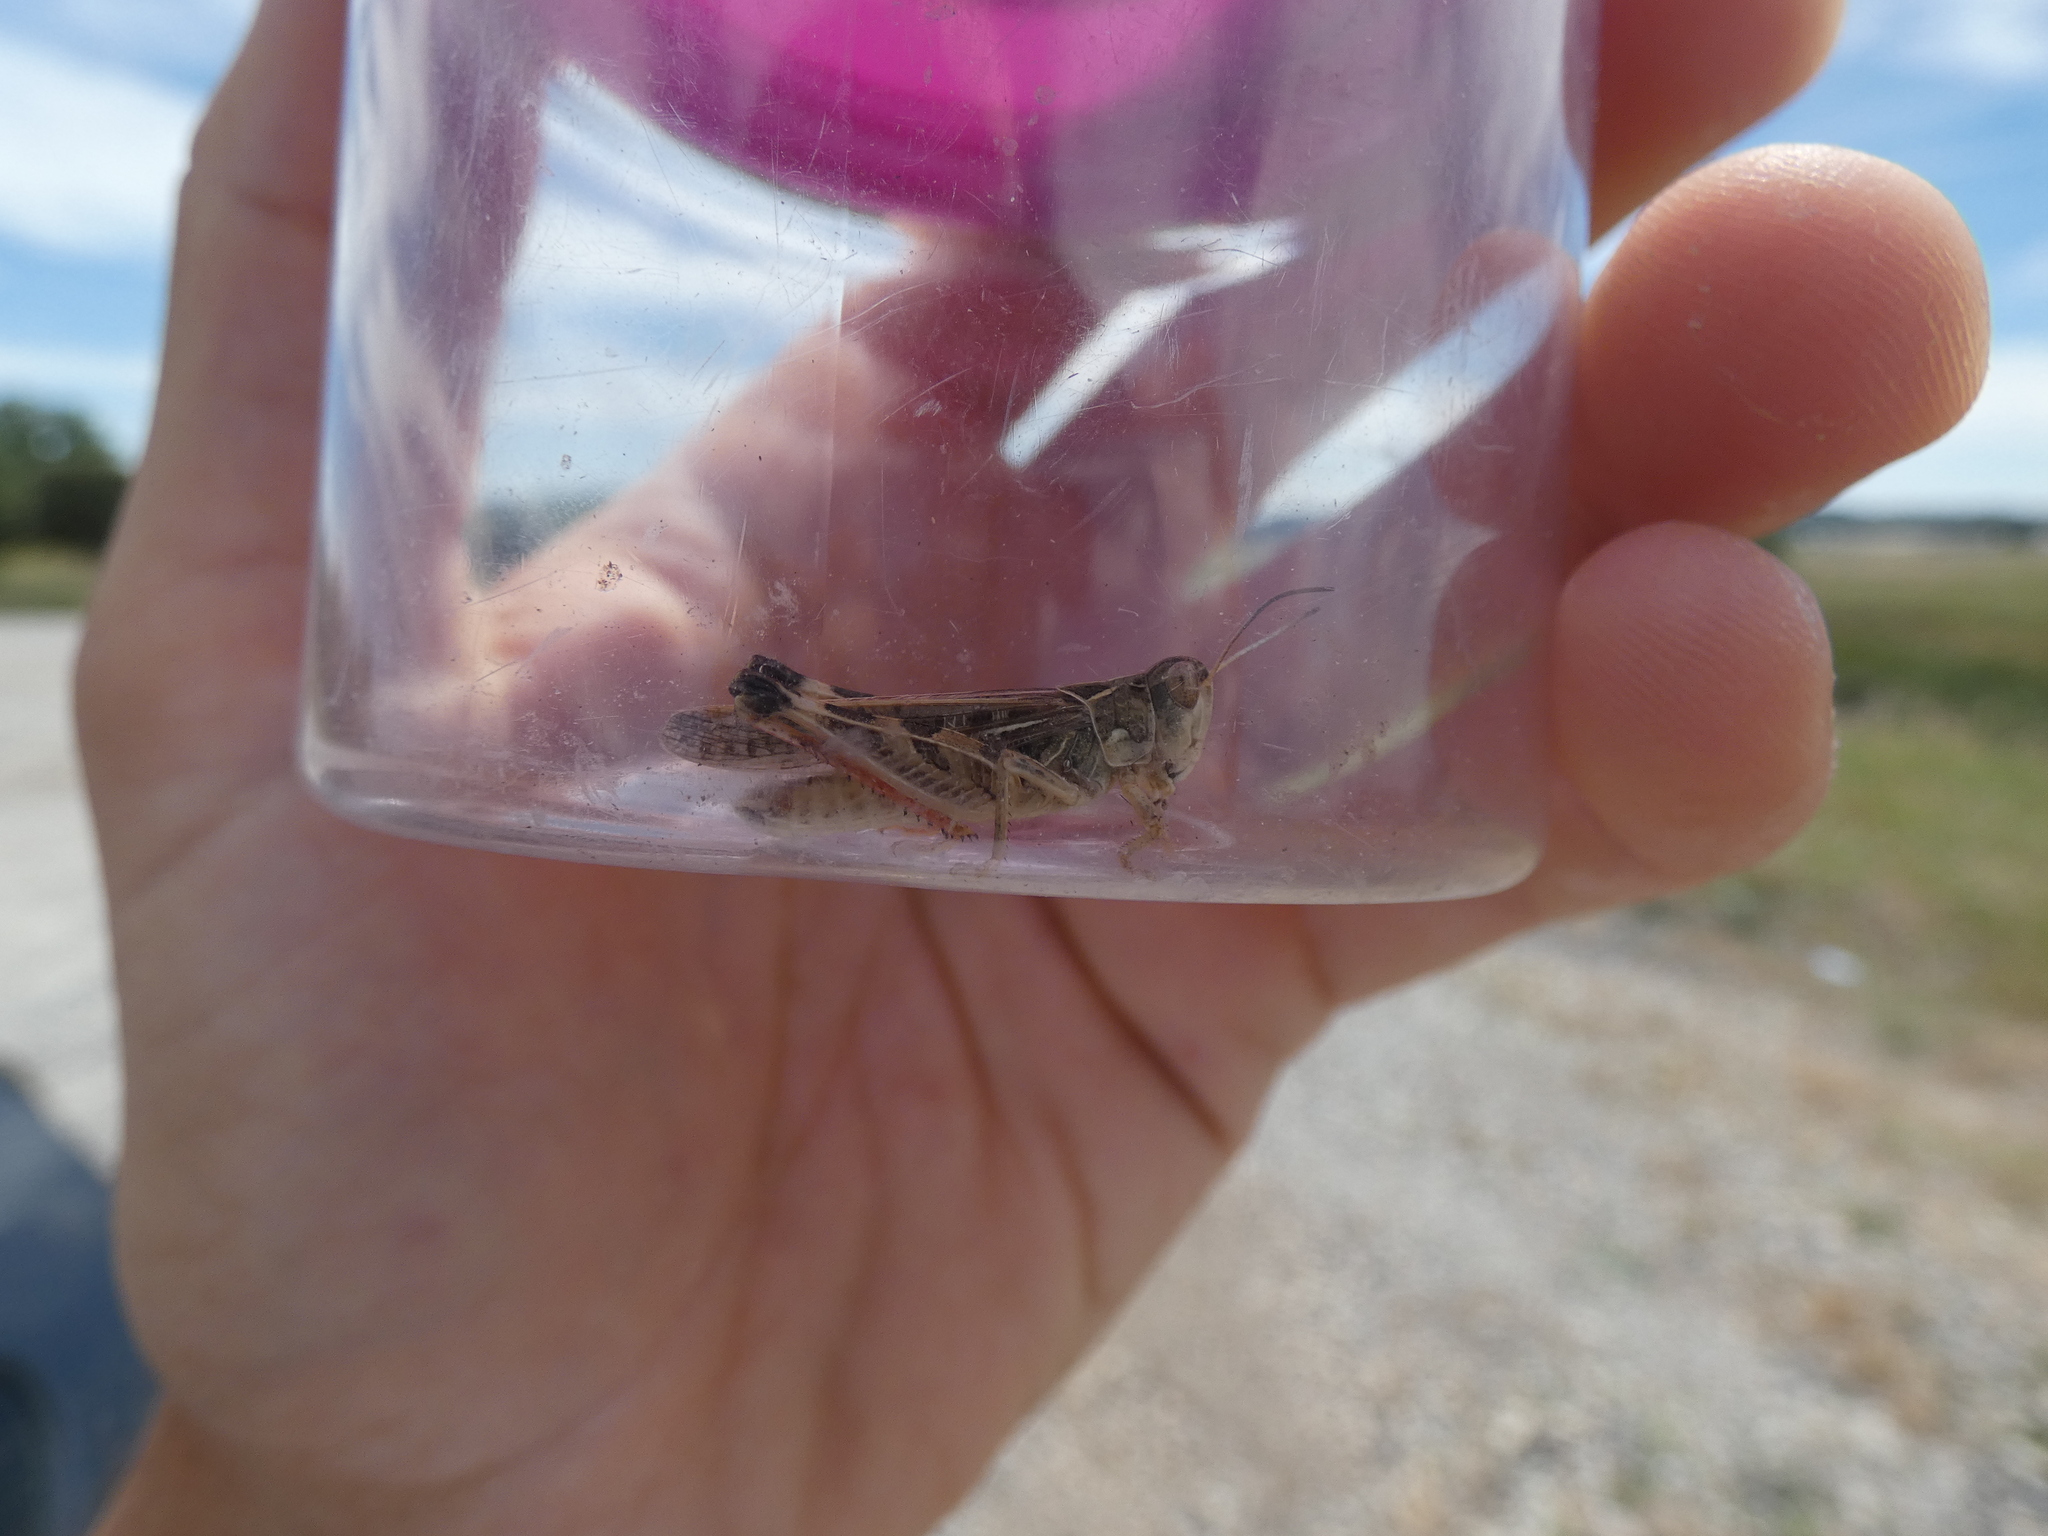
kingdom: Animalia
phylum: Arthropoda
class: Insecta
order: Orthoptera
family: Acrididae
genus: Dociostaurus
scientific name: Dociostaurus maroccanus
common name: Moroccan locust
